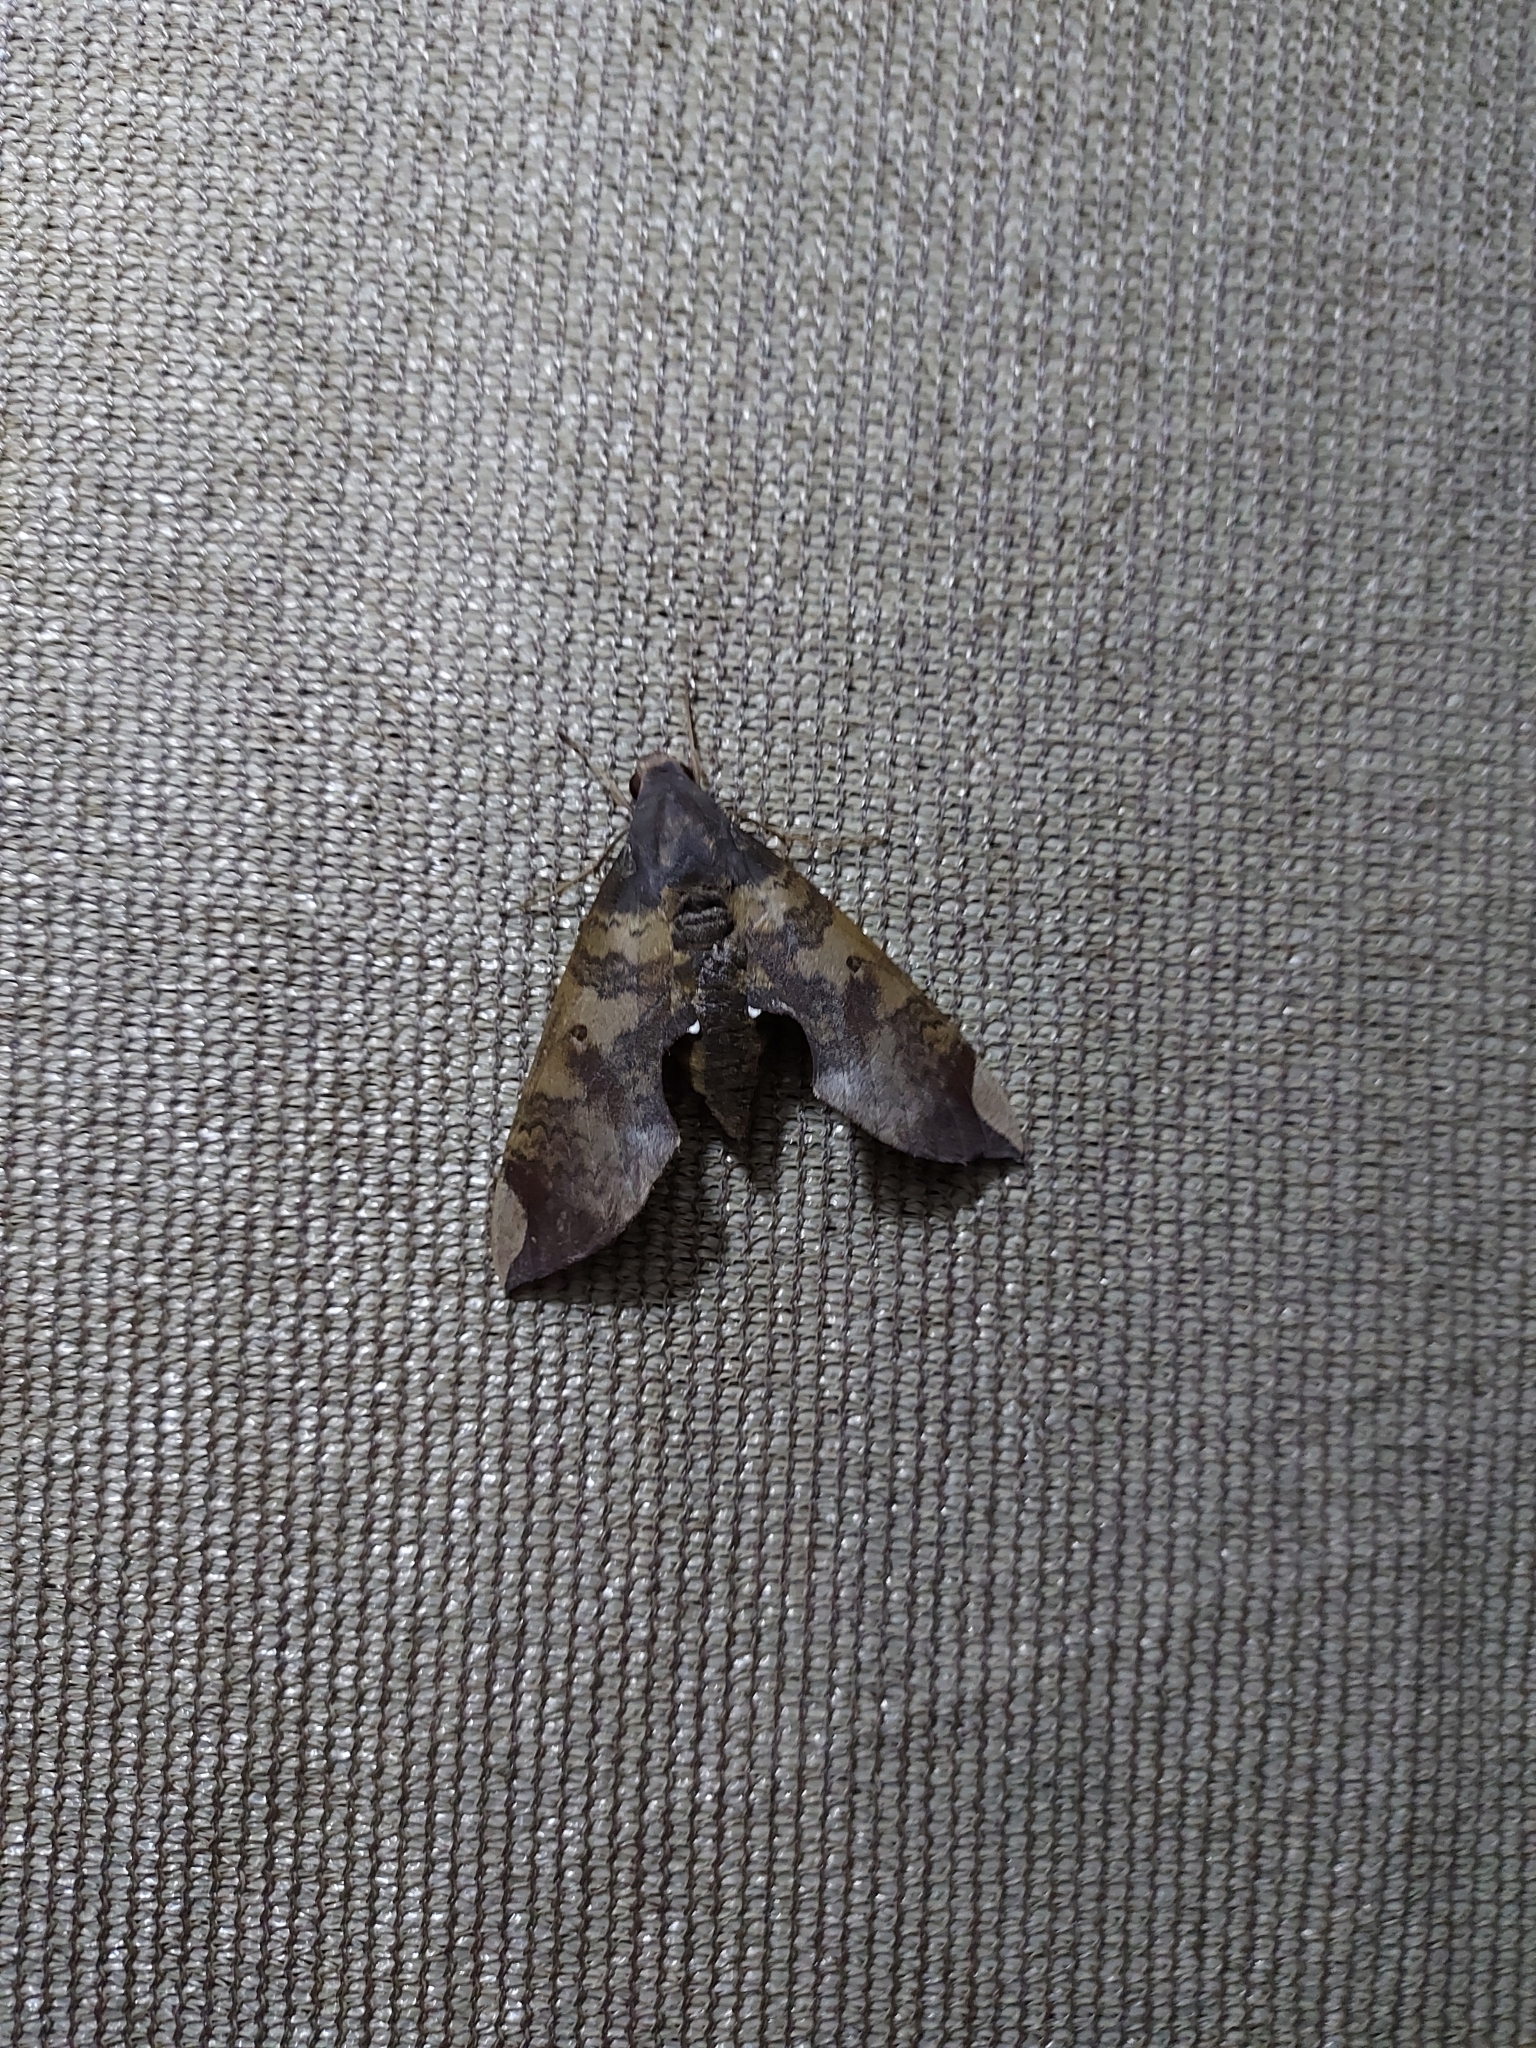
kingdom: Animalia
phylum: Arthropoda
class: Insecta
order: Lepidoptera
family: Sphingidae
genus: Pachylia
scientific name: Pachylia ficus
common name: Fig sphinx
